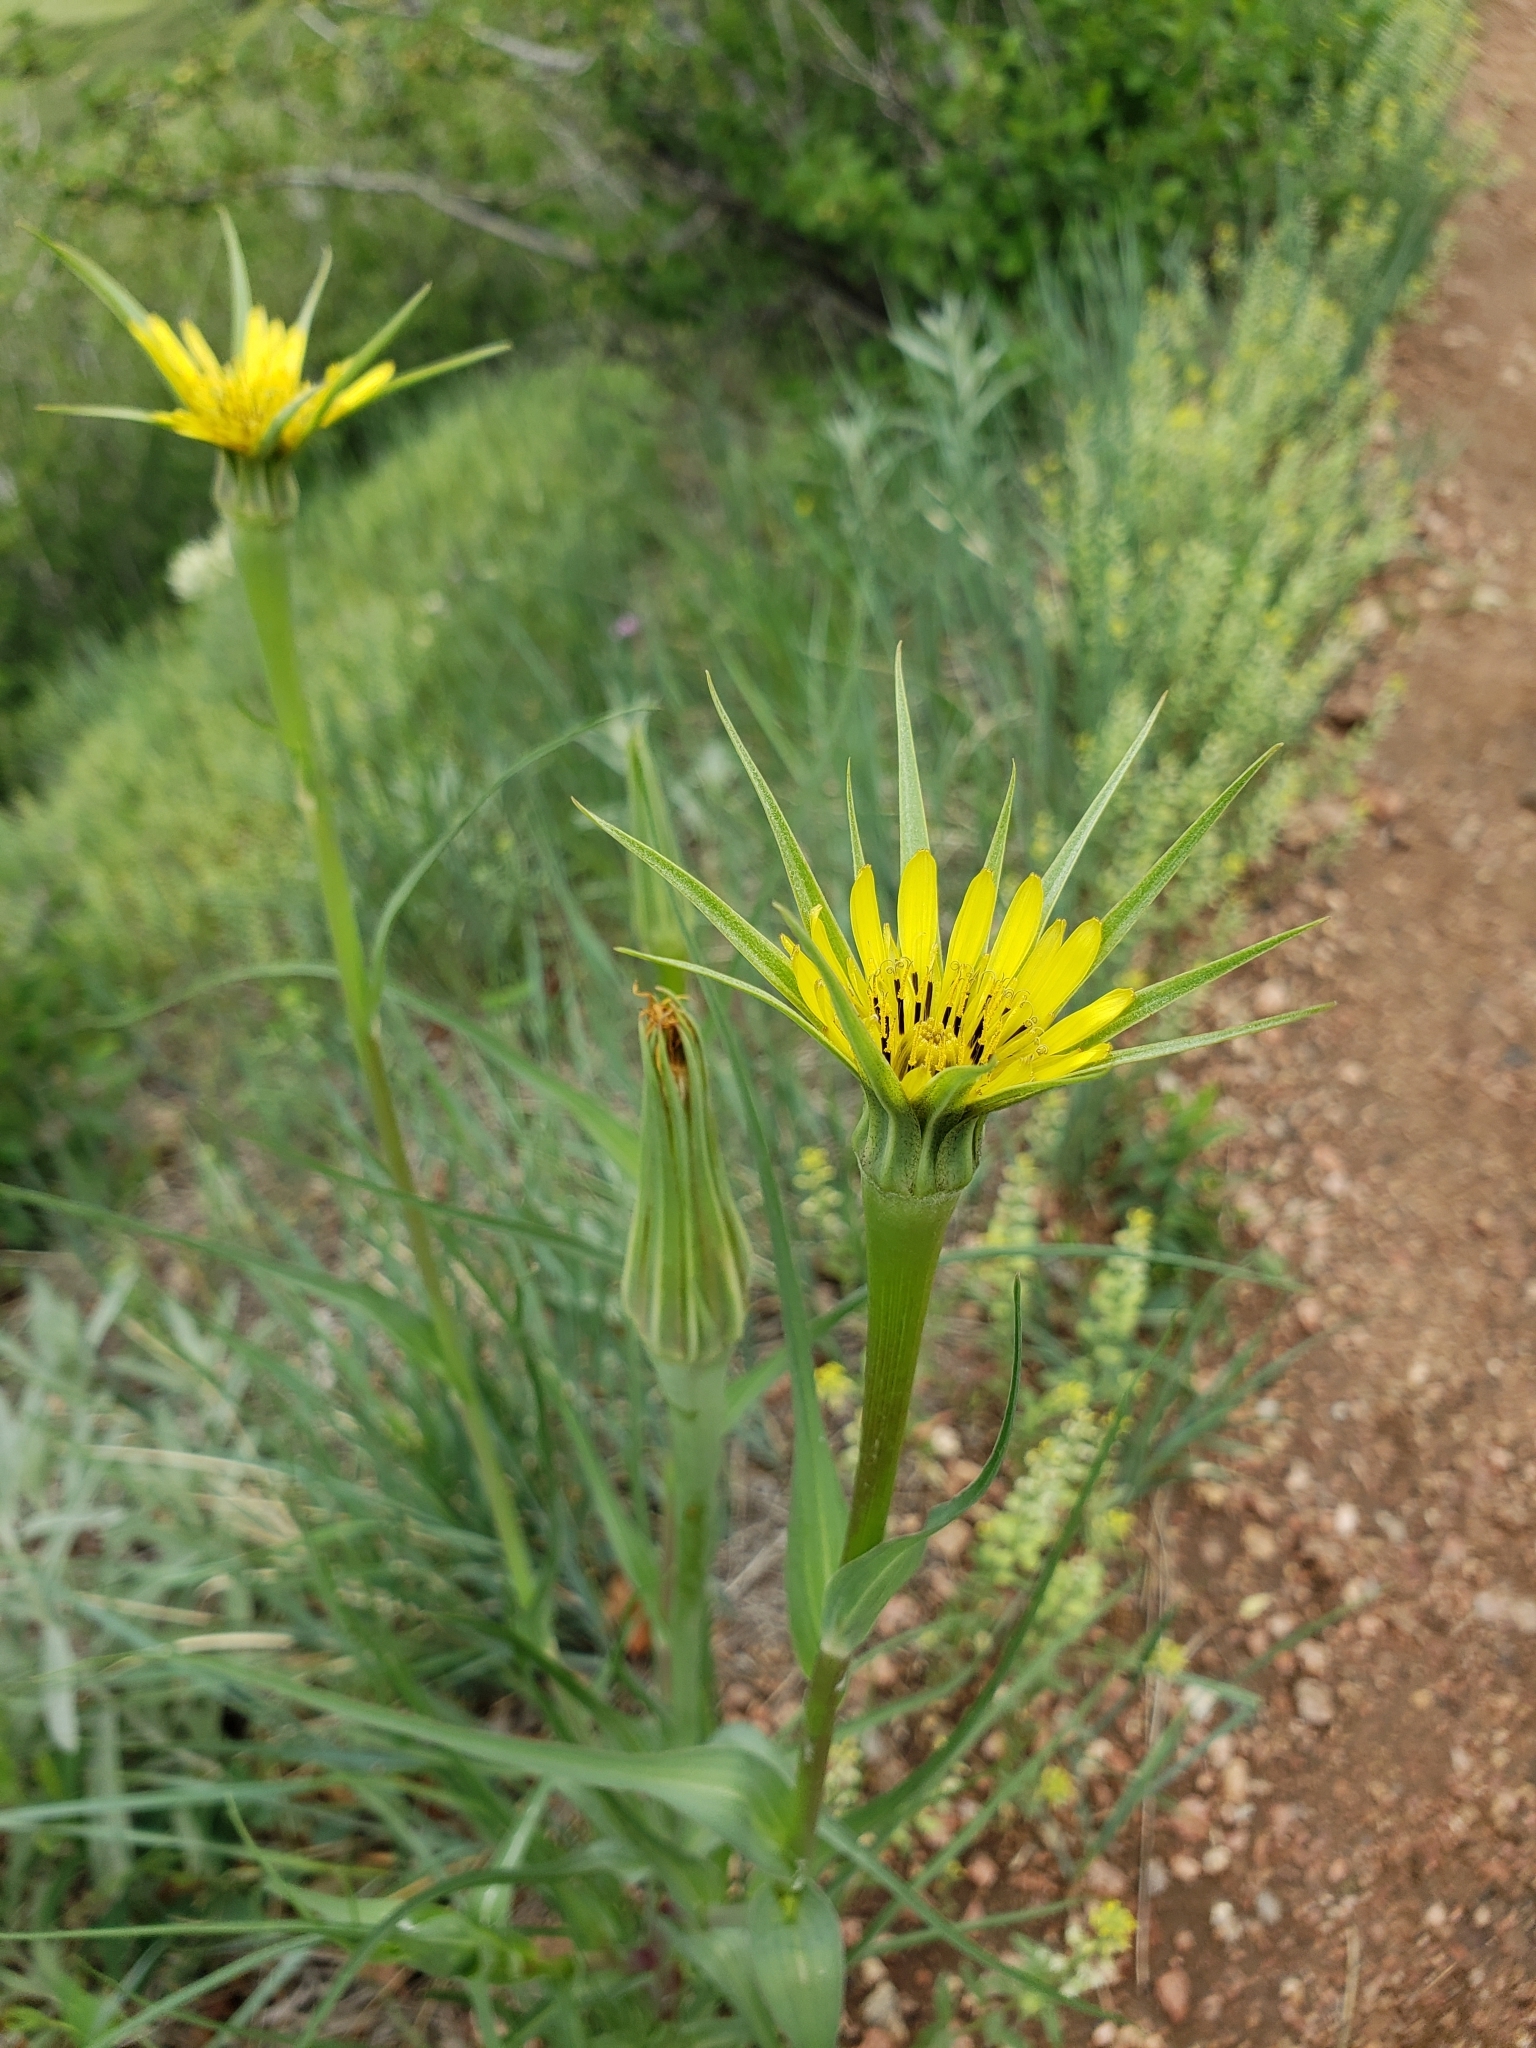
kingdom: Plantae
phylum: Tracheophyta
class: Magnoliopsida
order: Asterales
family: Asteraceae
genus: Tragopogon
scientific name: Tragopogon dubius
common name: Yellow salsify
